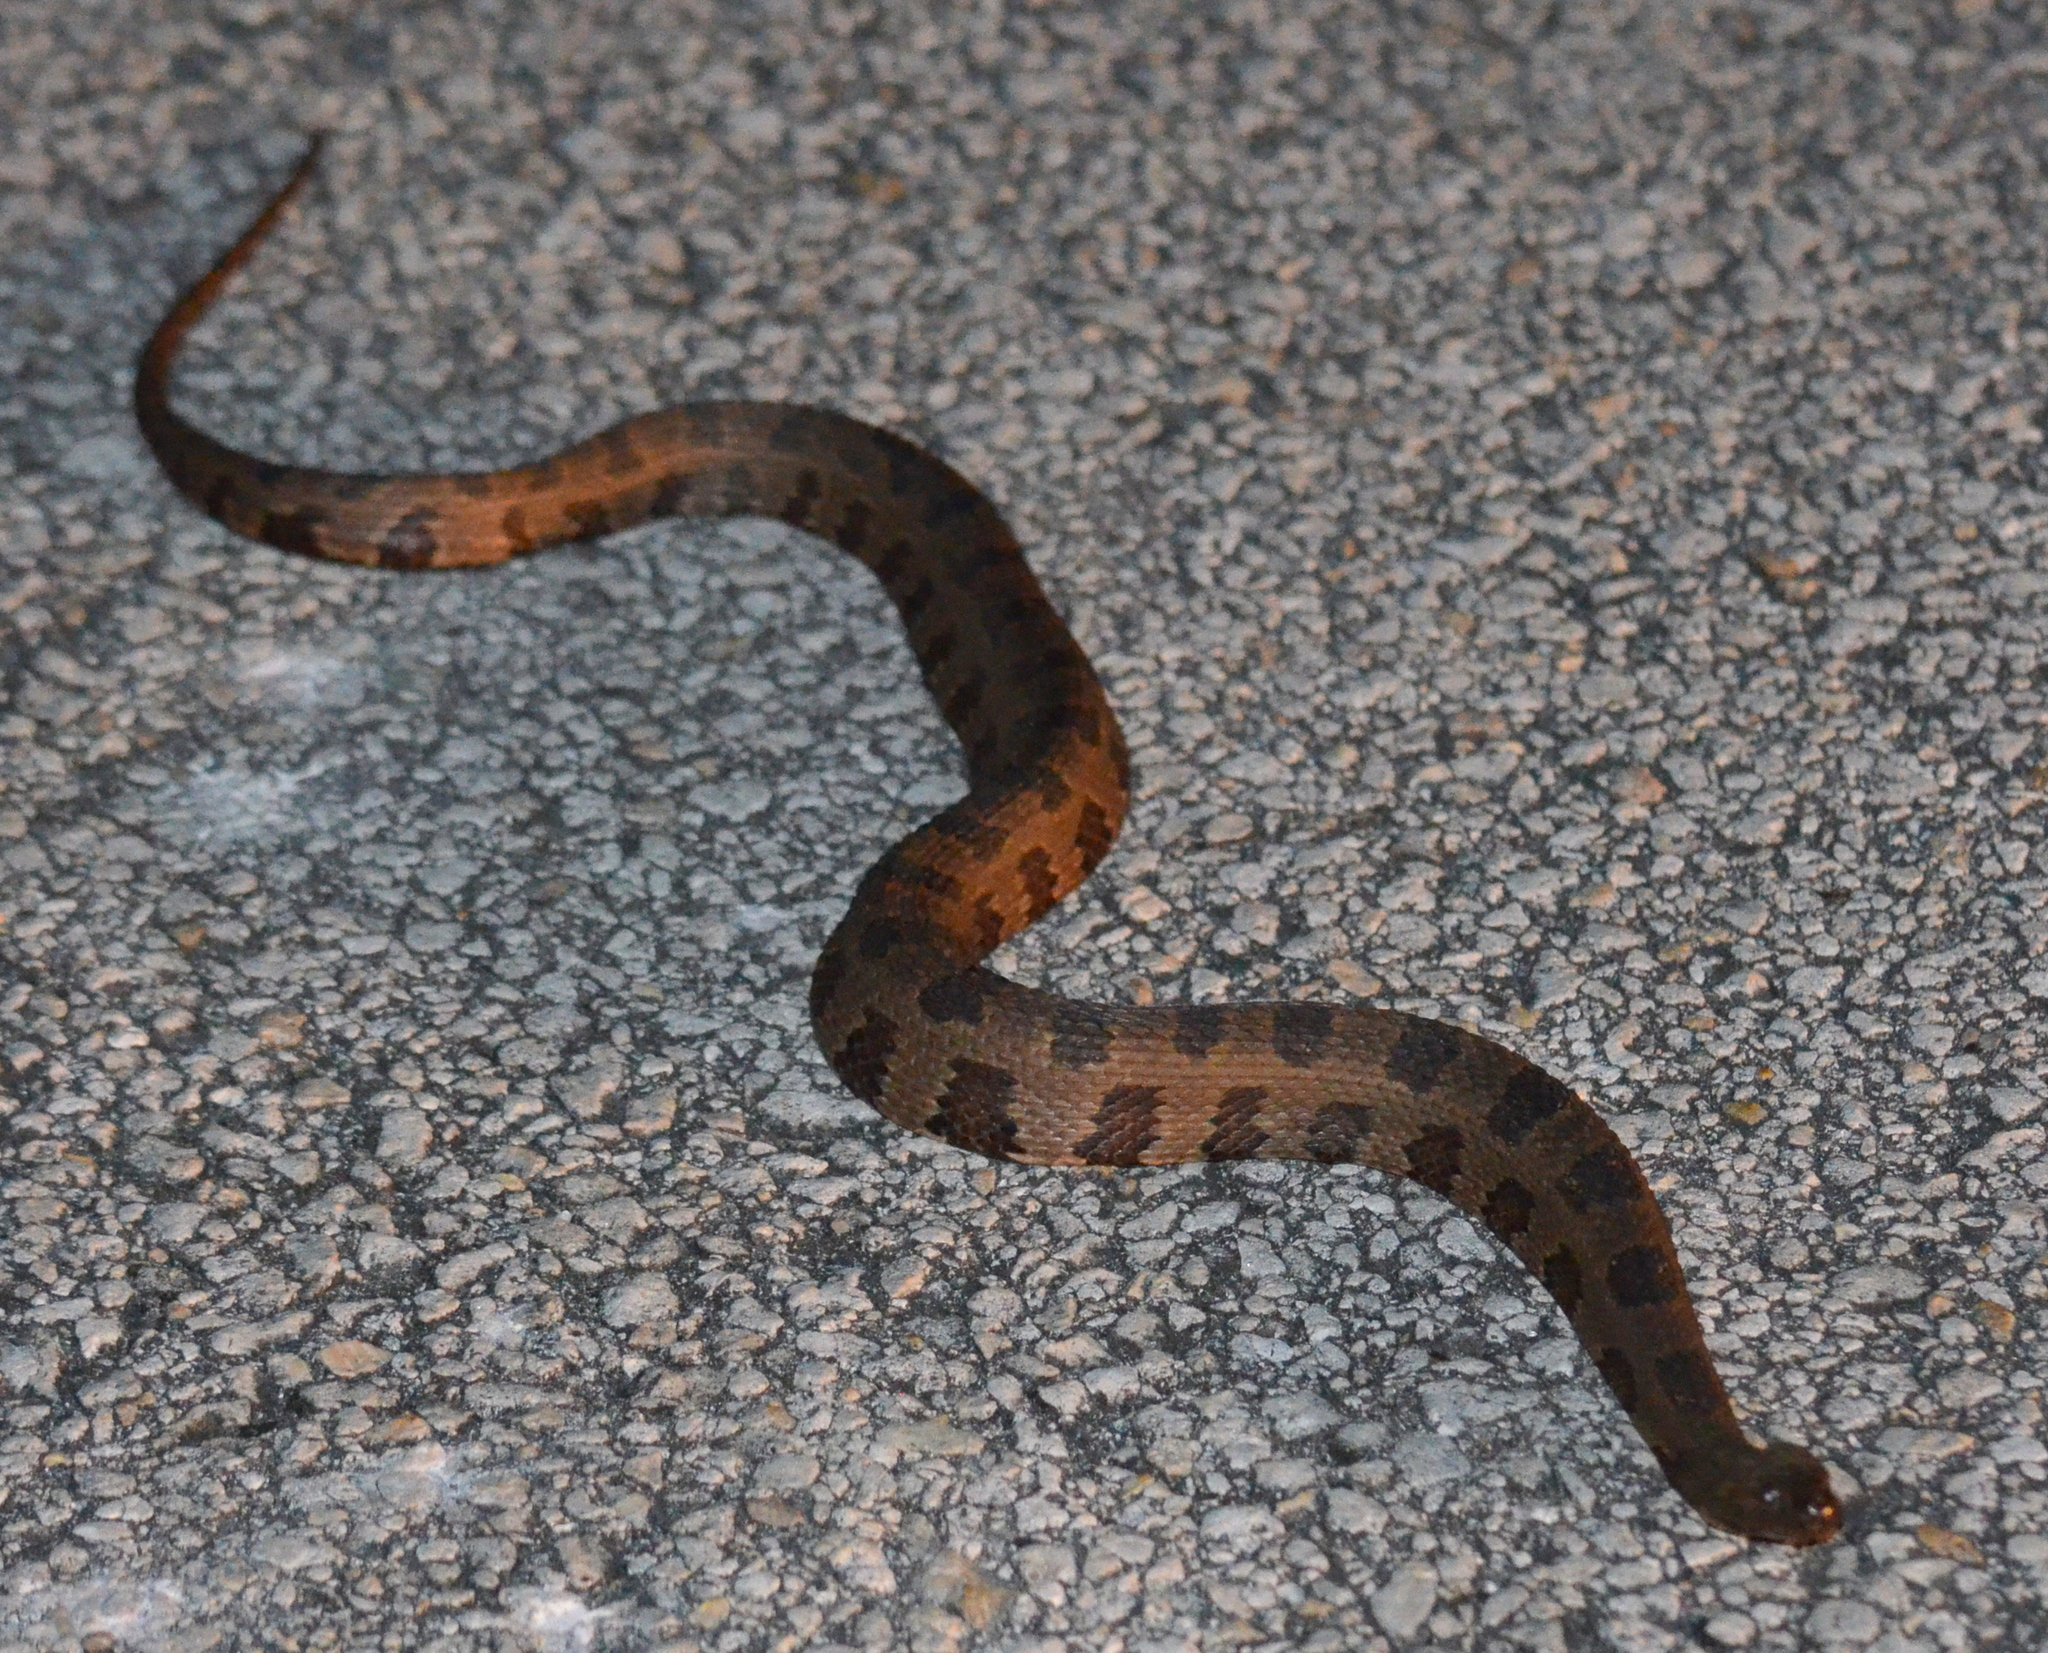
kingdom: Animalia
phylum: Chordata
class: Squamata
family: Colubridae
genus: Nerodia
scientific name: Nerodia taxispilota
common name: Brown water snake
